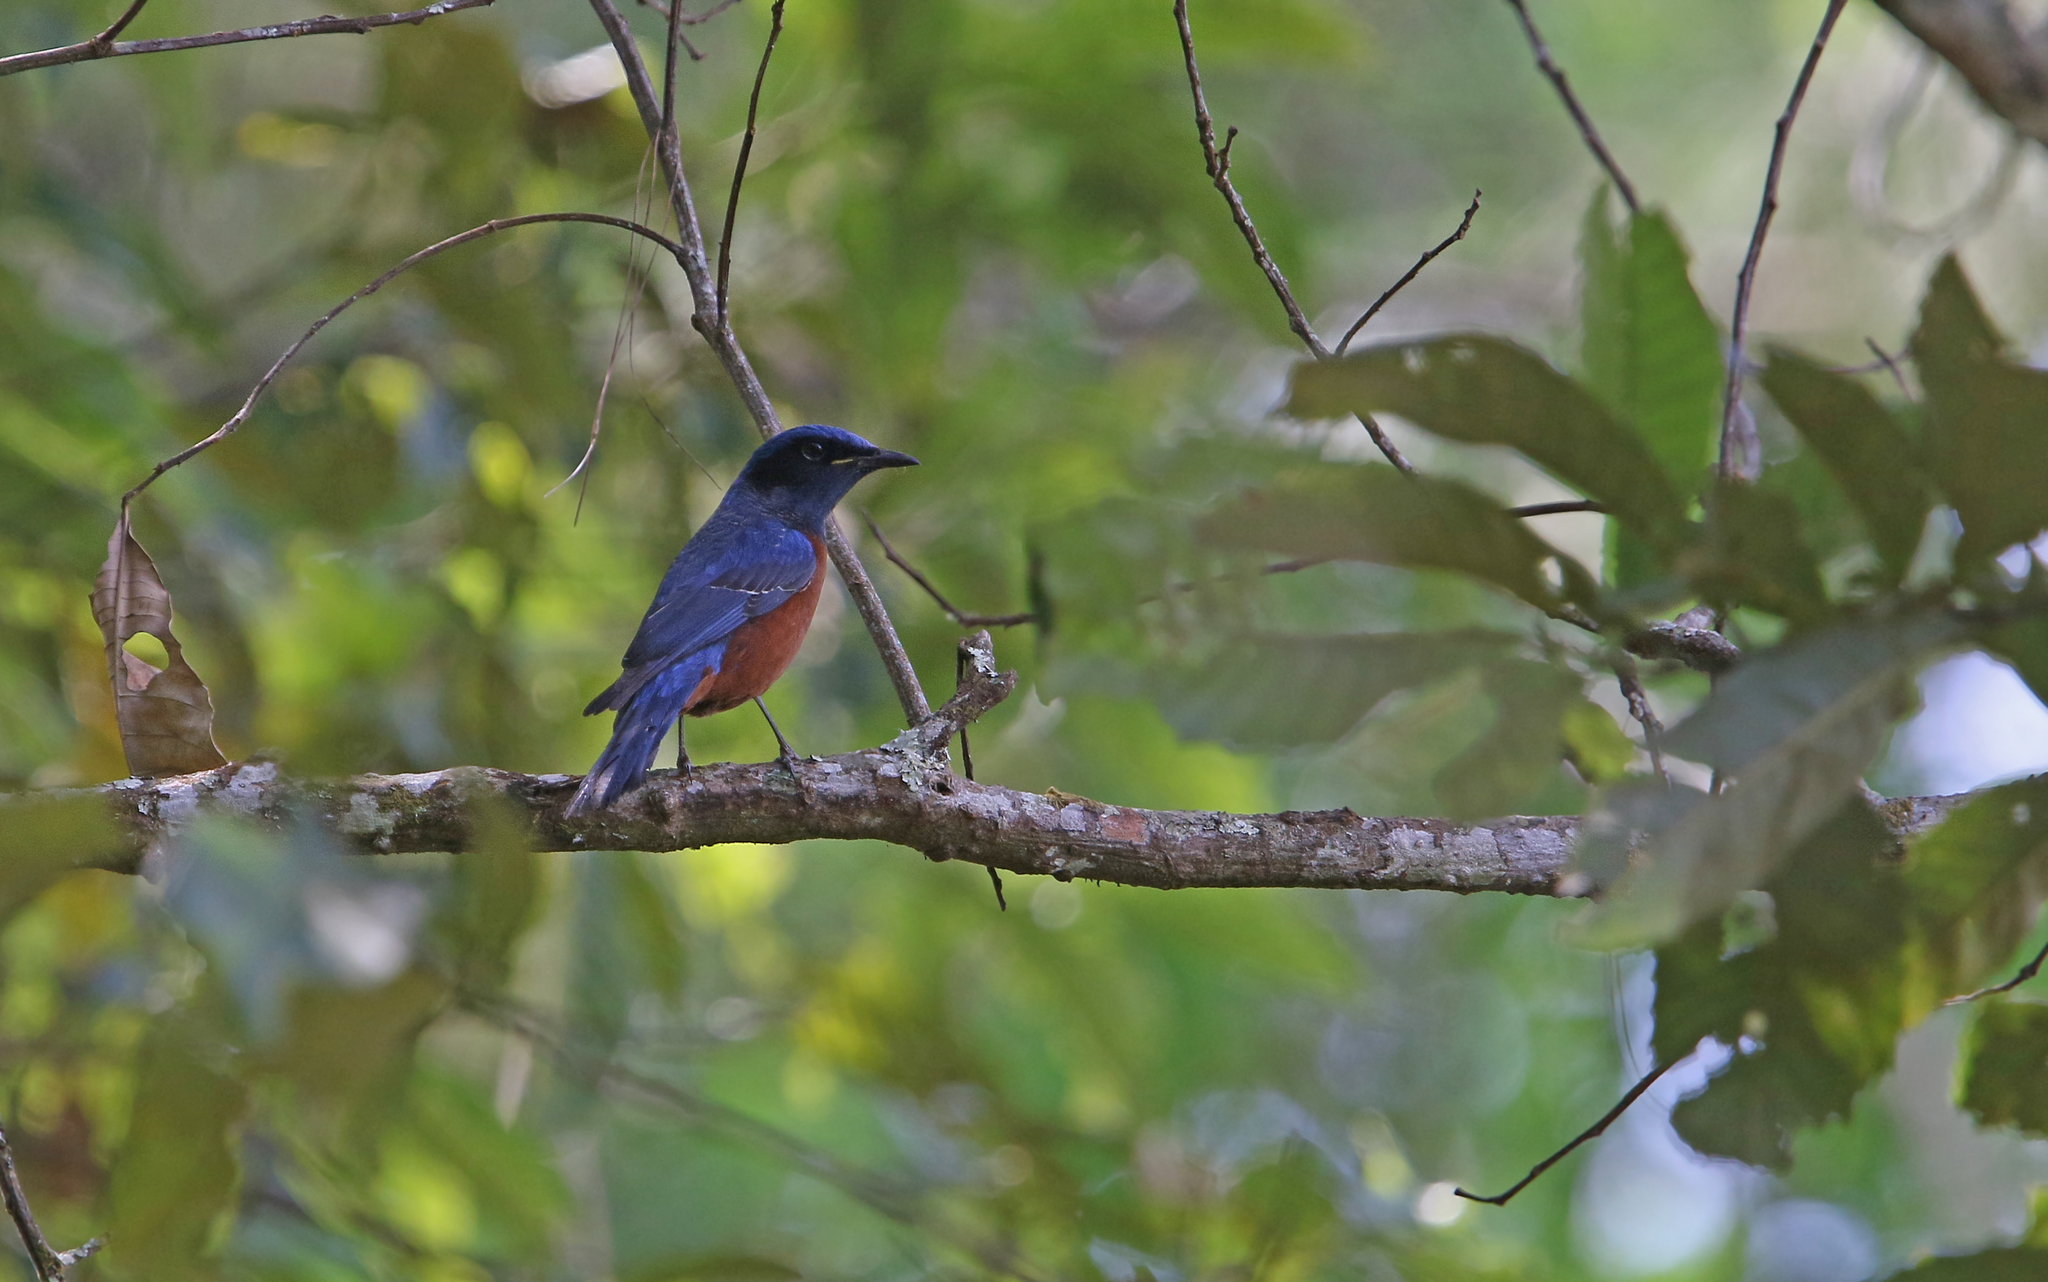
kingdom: Animalia
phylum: Chordata
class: Aves
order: Passeriformes
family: Muscicapidae
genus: Monticola
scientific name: Monticola rufiventris
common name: Chestnut-bellied rock thrush
